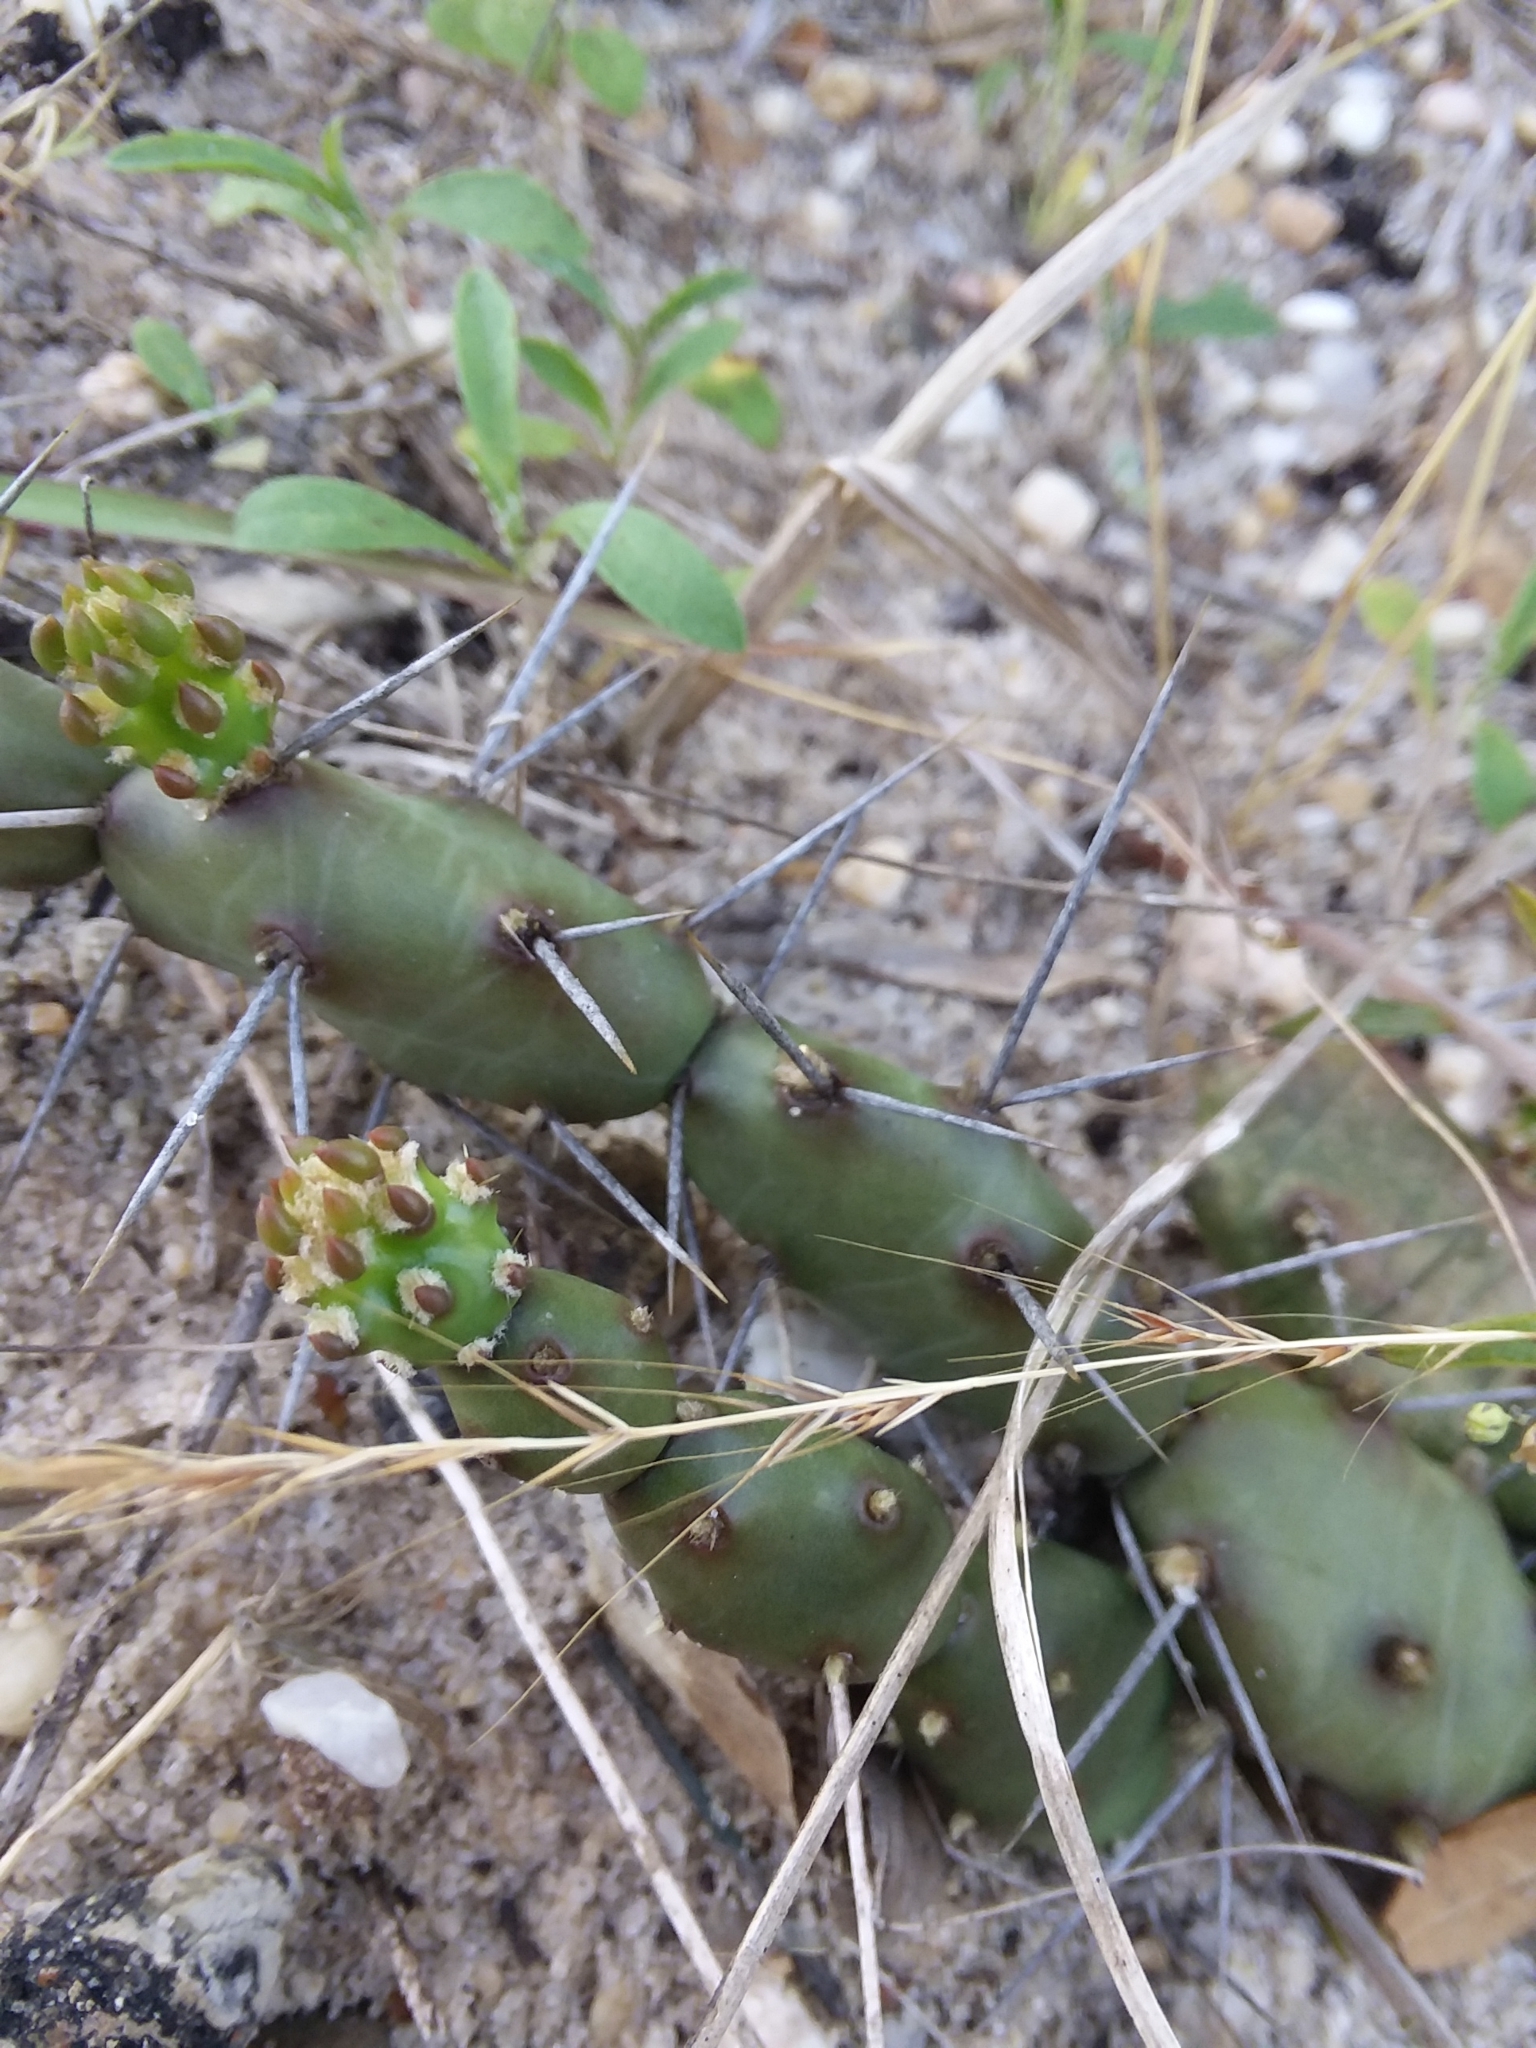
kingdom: Plantae
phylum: Tracheophyta
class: Magnoliopsida
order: Caryophyllales
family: Cactaceae
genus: Opuntia
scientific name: Opuntia drummondii
